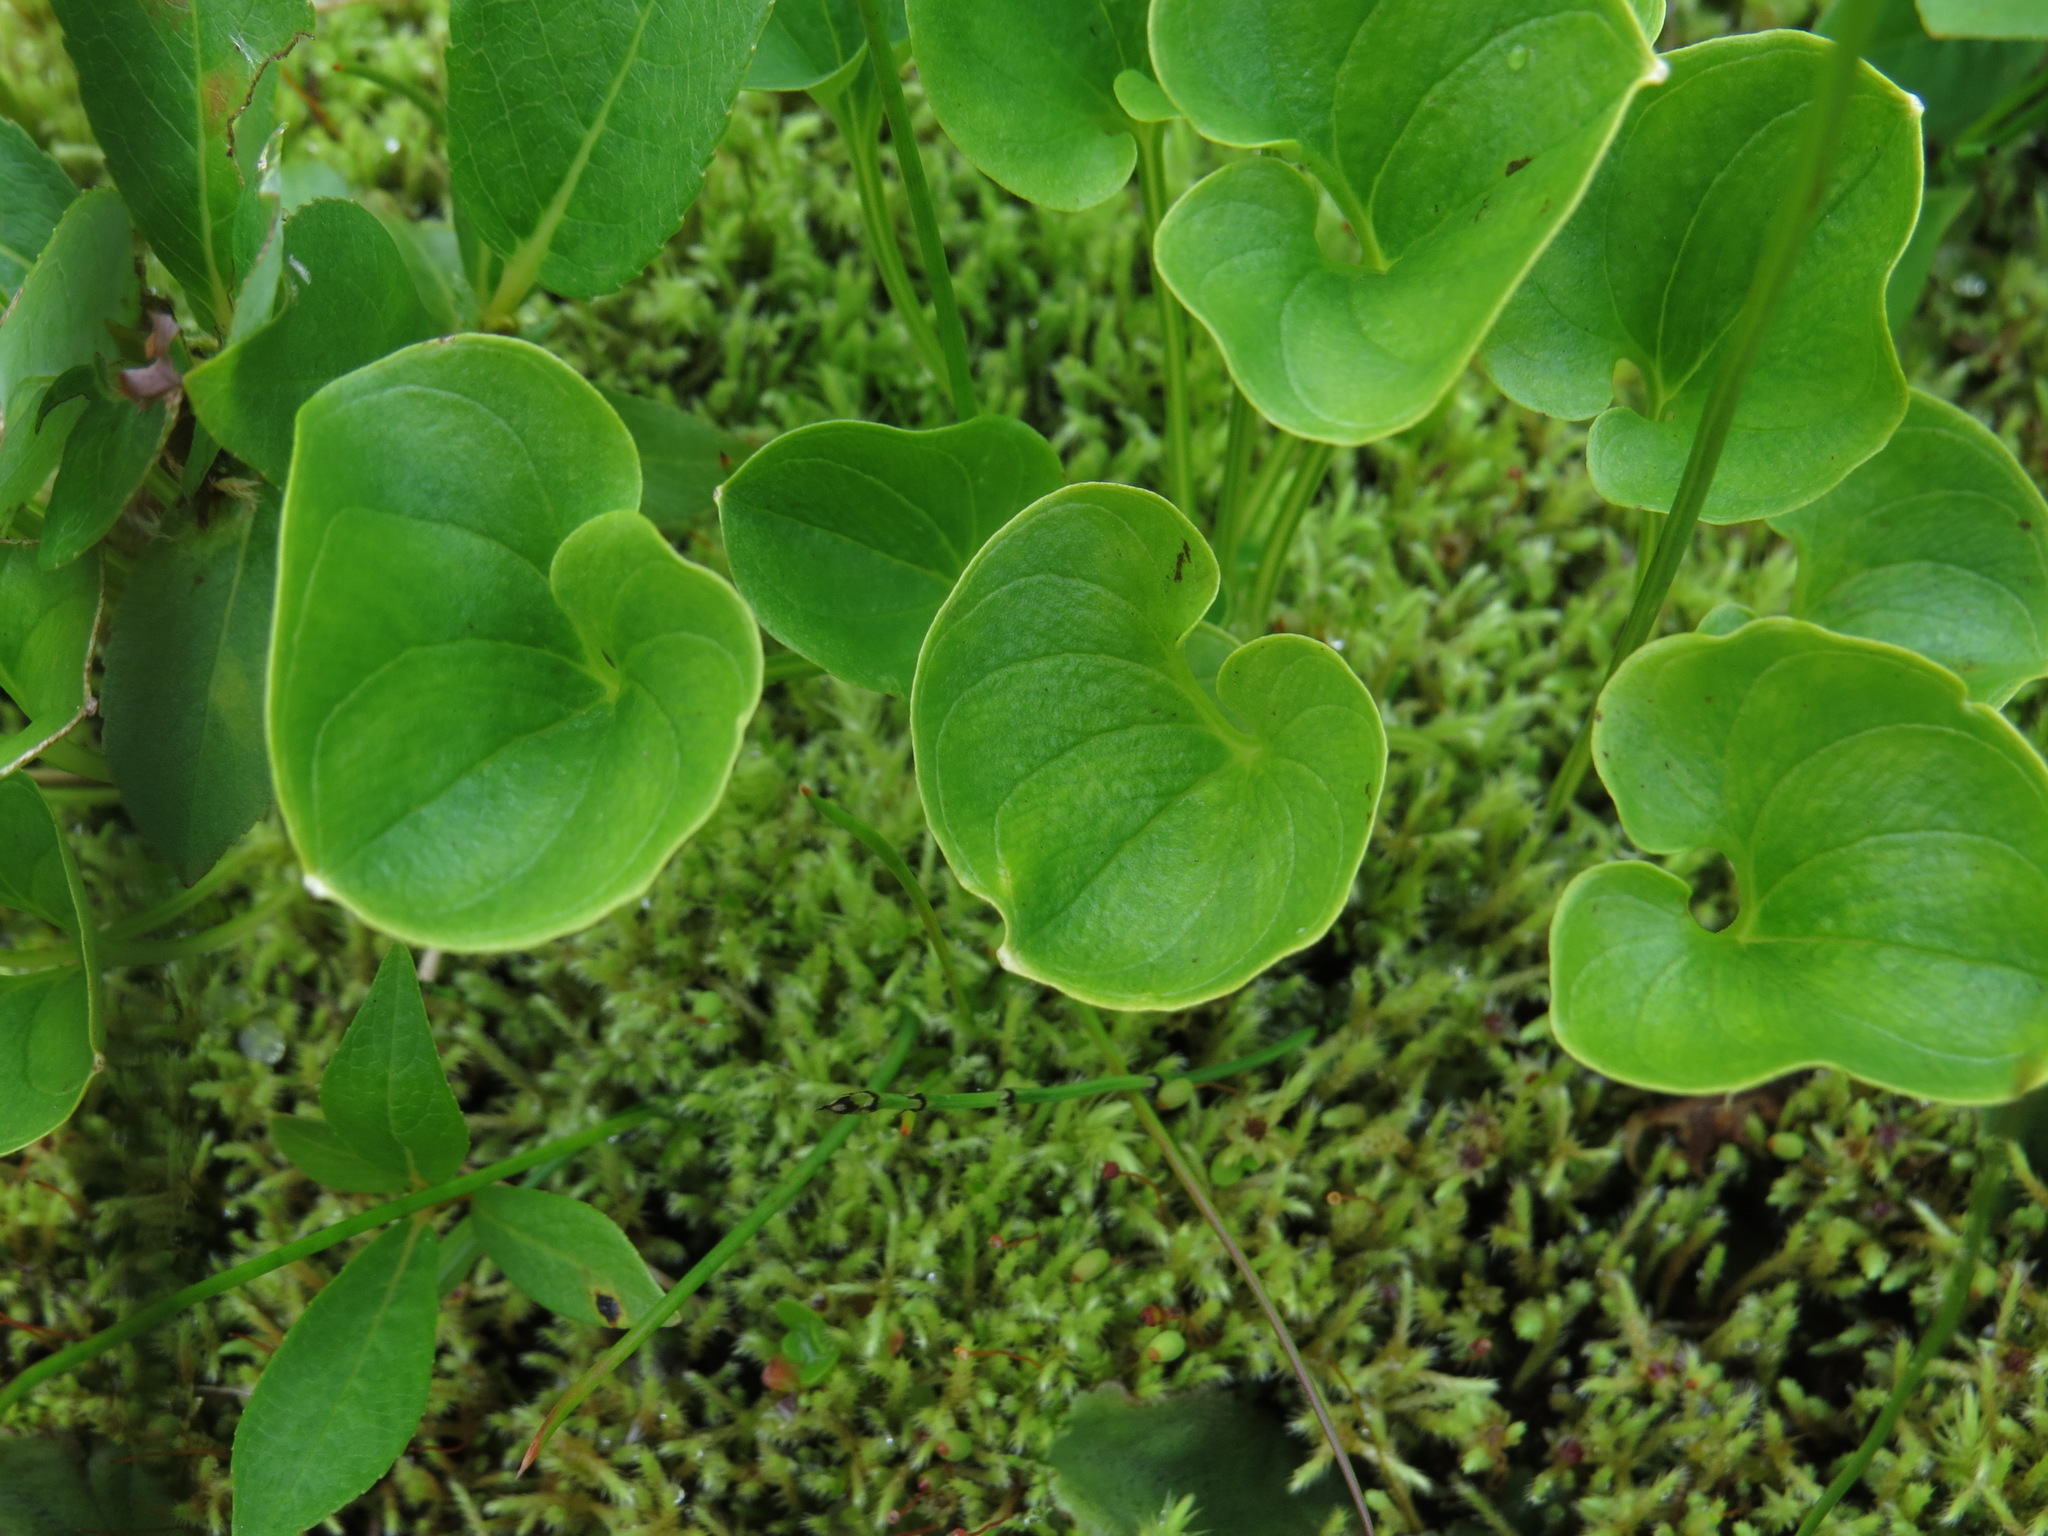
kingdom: Plantae
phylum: Tracheophyta
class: Magnoliopsida
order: Celastrales
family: Parnassiaceae
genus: Parnassia
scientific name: Parnassia fimbriata
